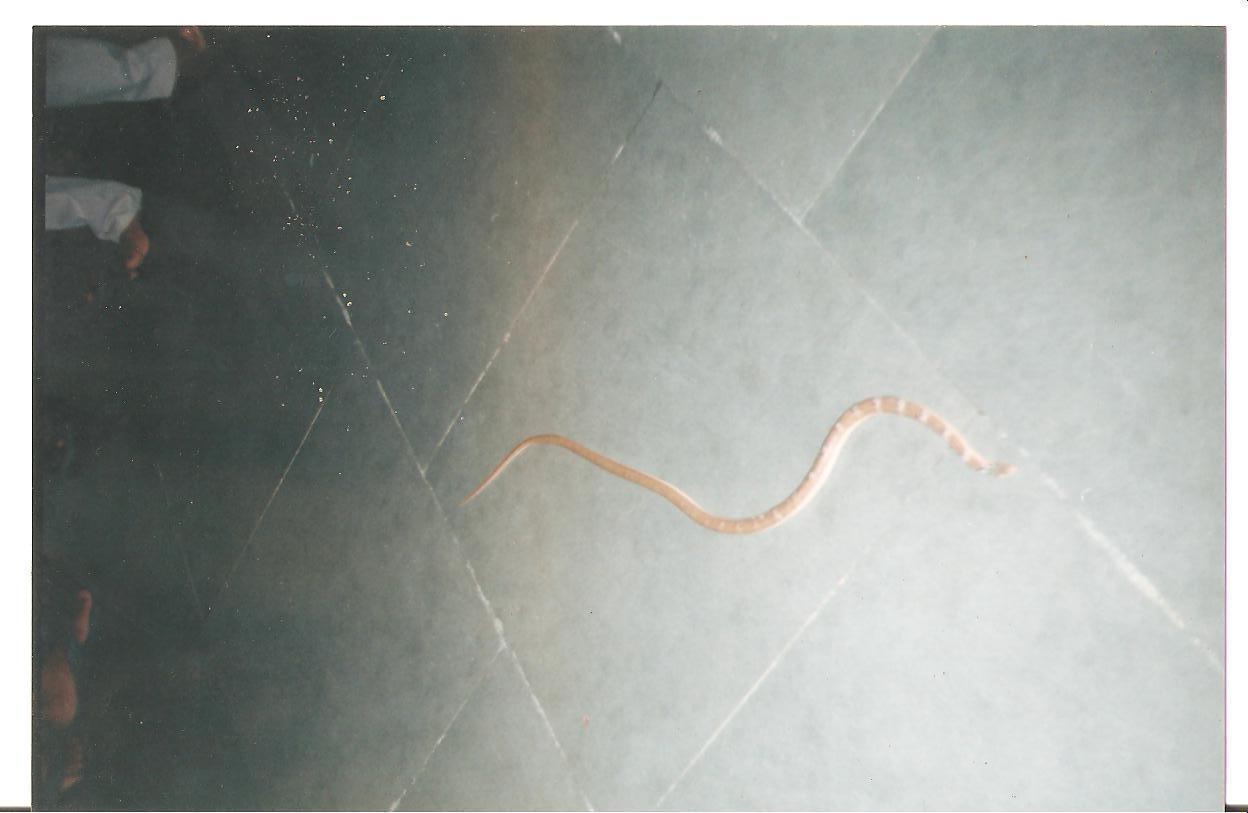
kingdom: Animalia
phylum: Chordata
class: Squamata
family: Colubridae
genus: Platyceps
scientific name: Platyceps josephi
